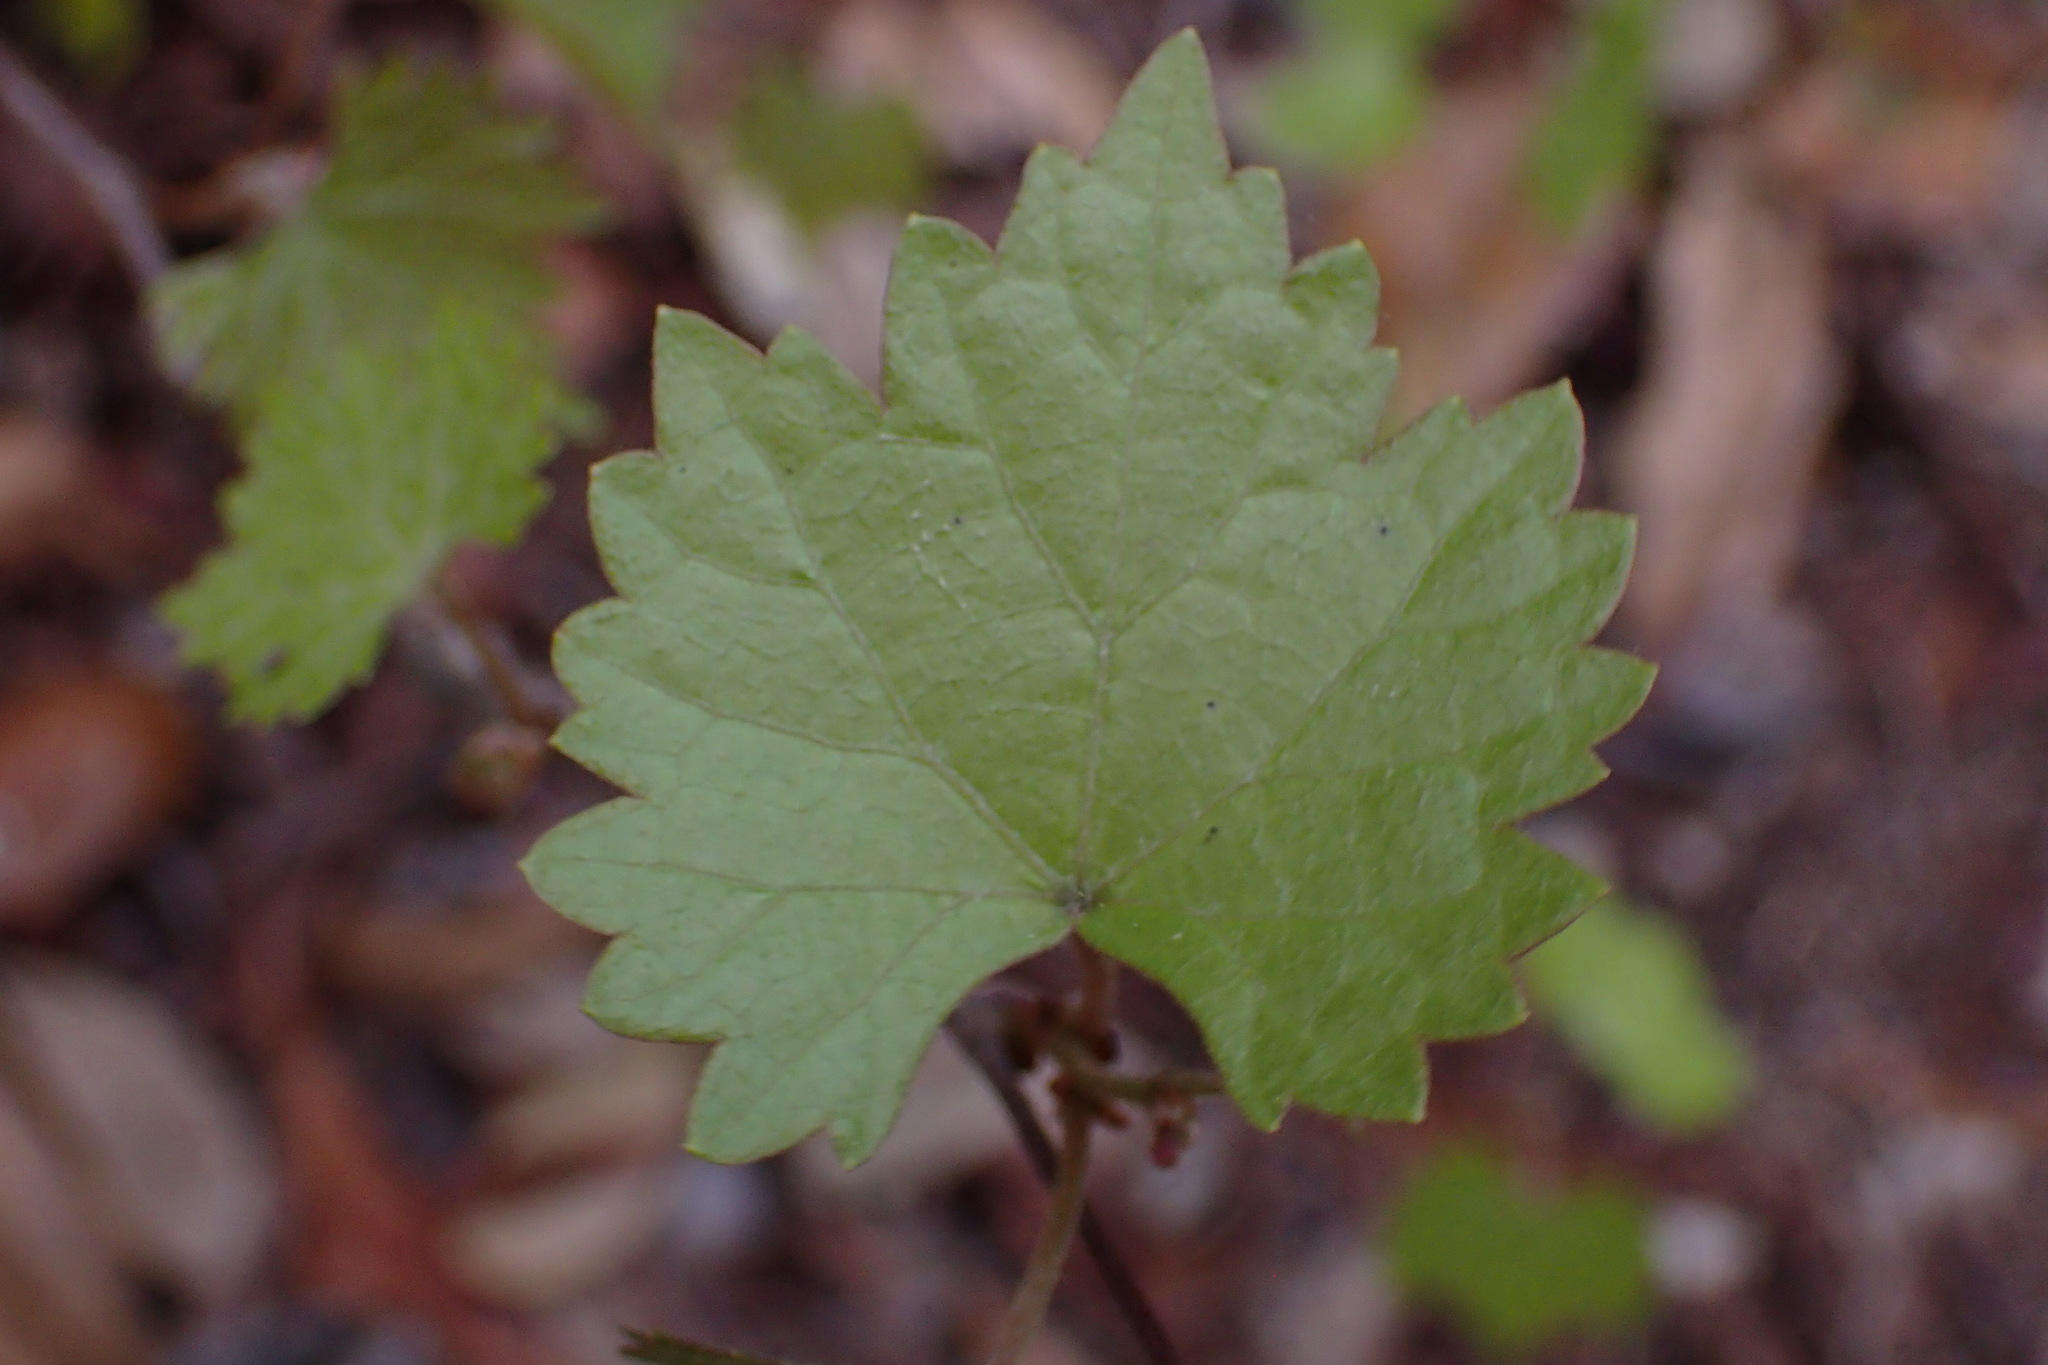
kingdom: Plantae
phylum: Tracheophyta
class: Magnoliopsida
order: Vitales
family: Vitaceae
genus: Vitis
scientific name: Vitis rotundifolia
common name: Muscadine grape
